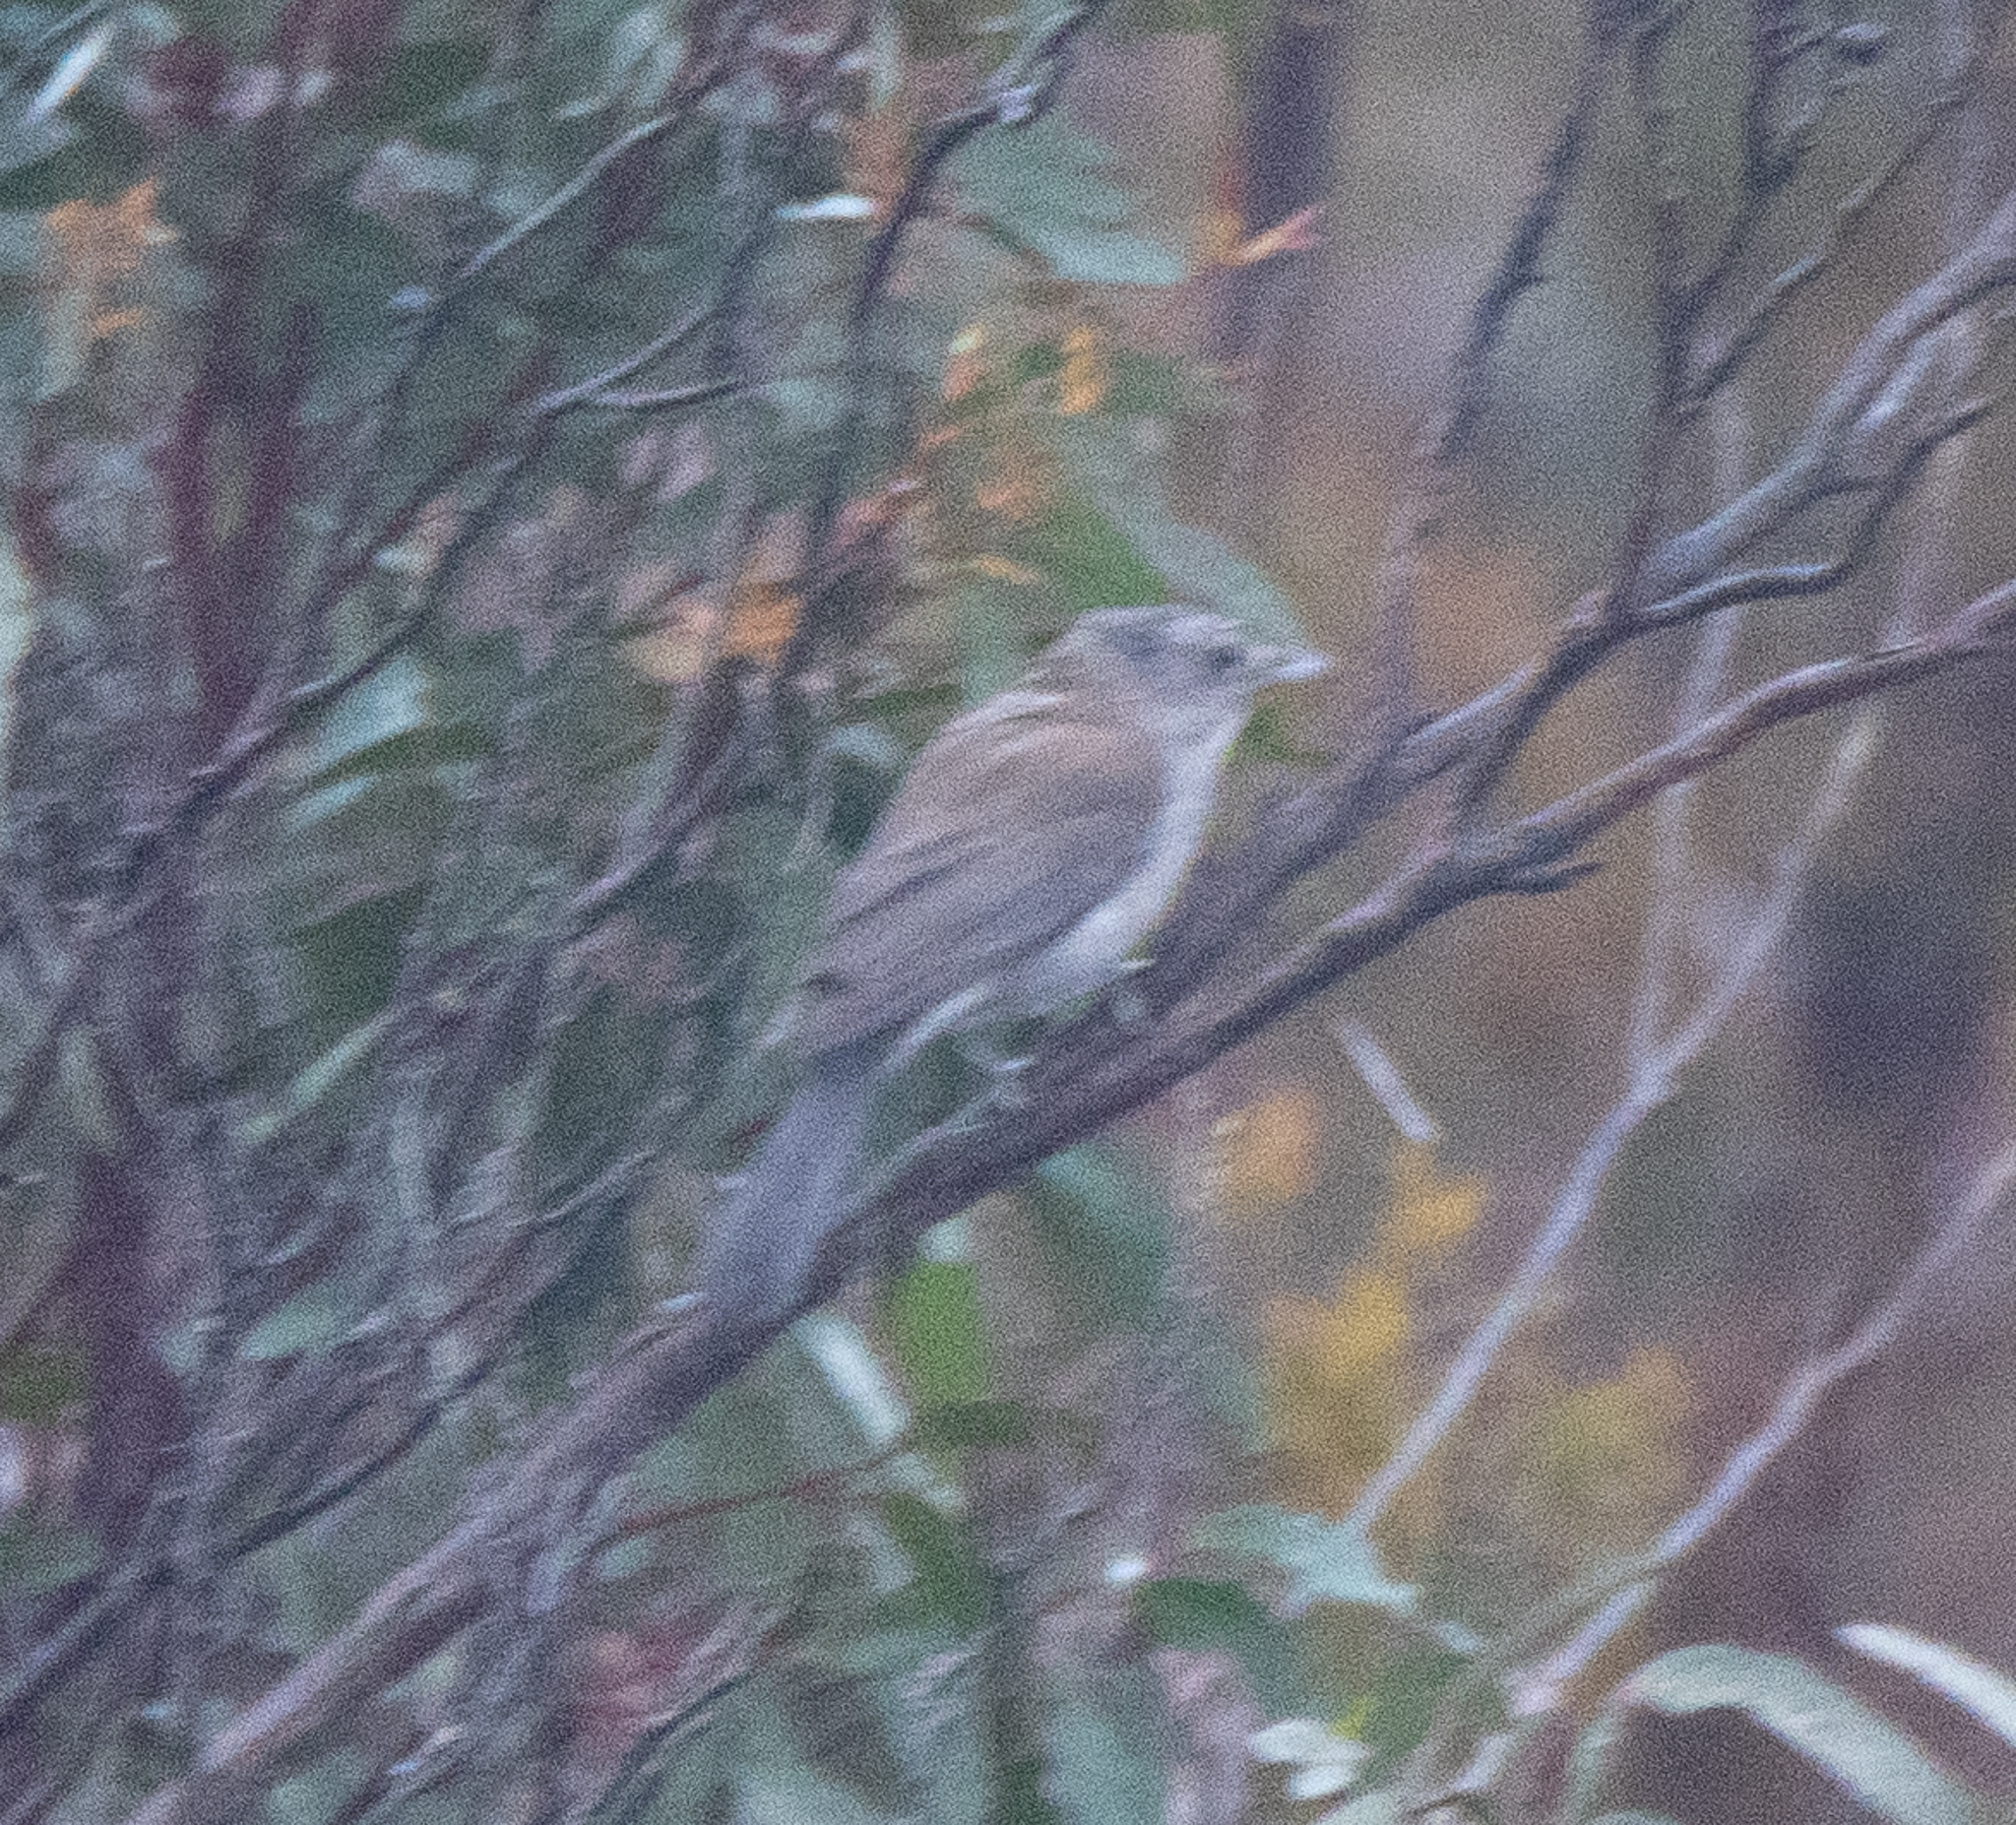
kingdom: Animalia
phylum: Chordata
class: Aves
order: Passeriformes
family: Pachycephalidae
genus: Colluricincla
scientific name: Colluricincla harmonica
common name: Grey shrikethrush
